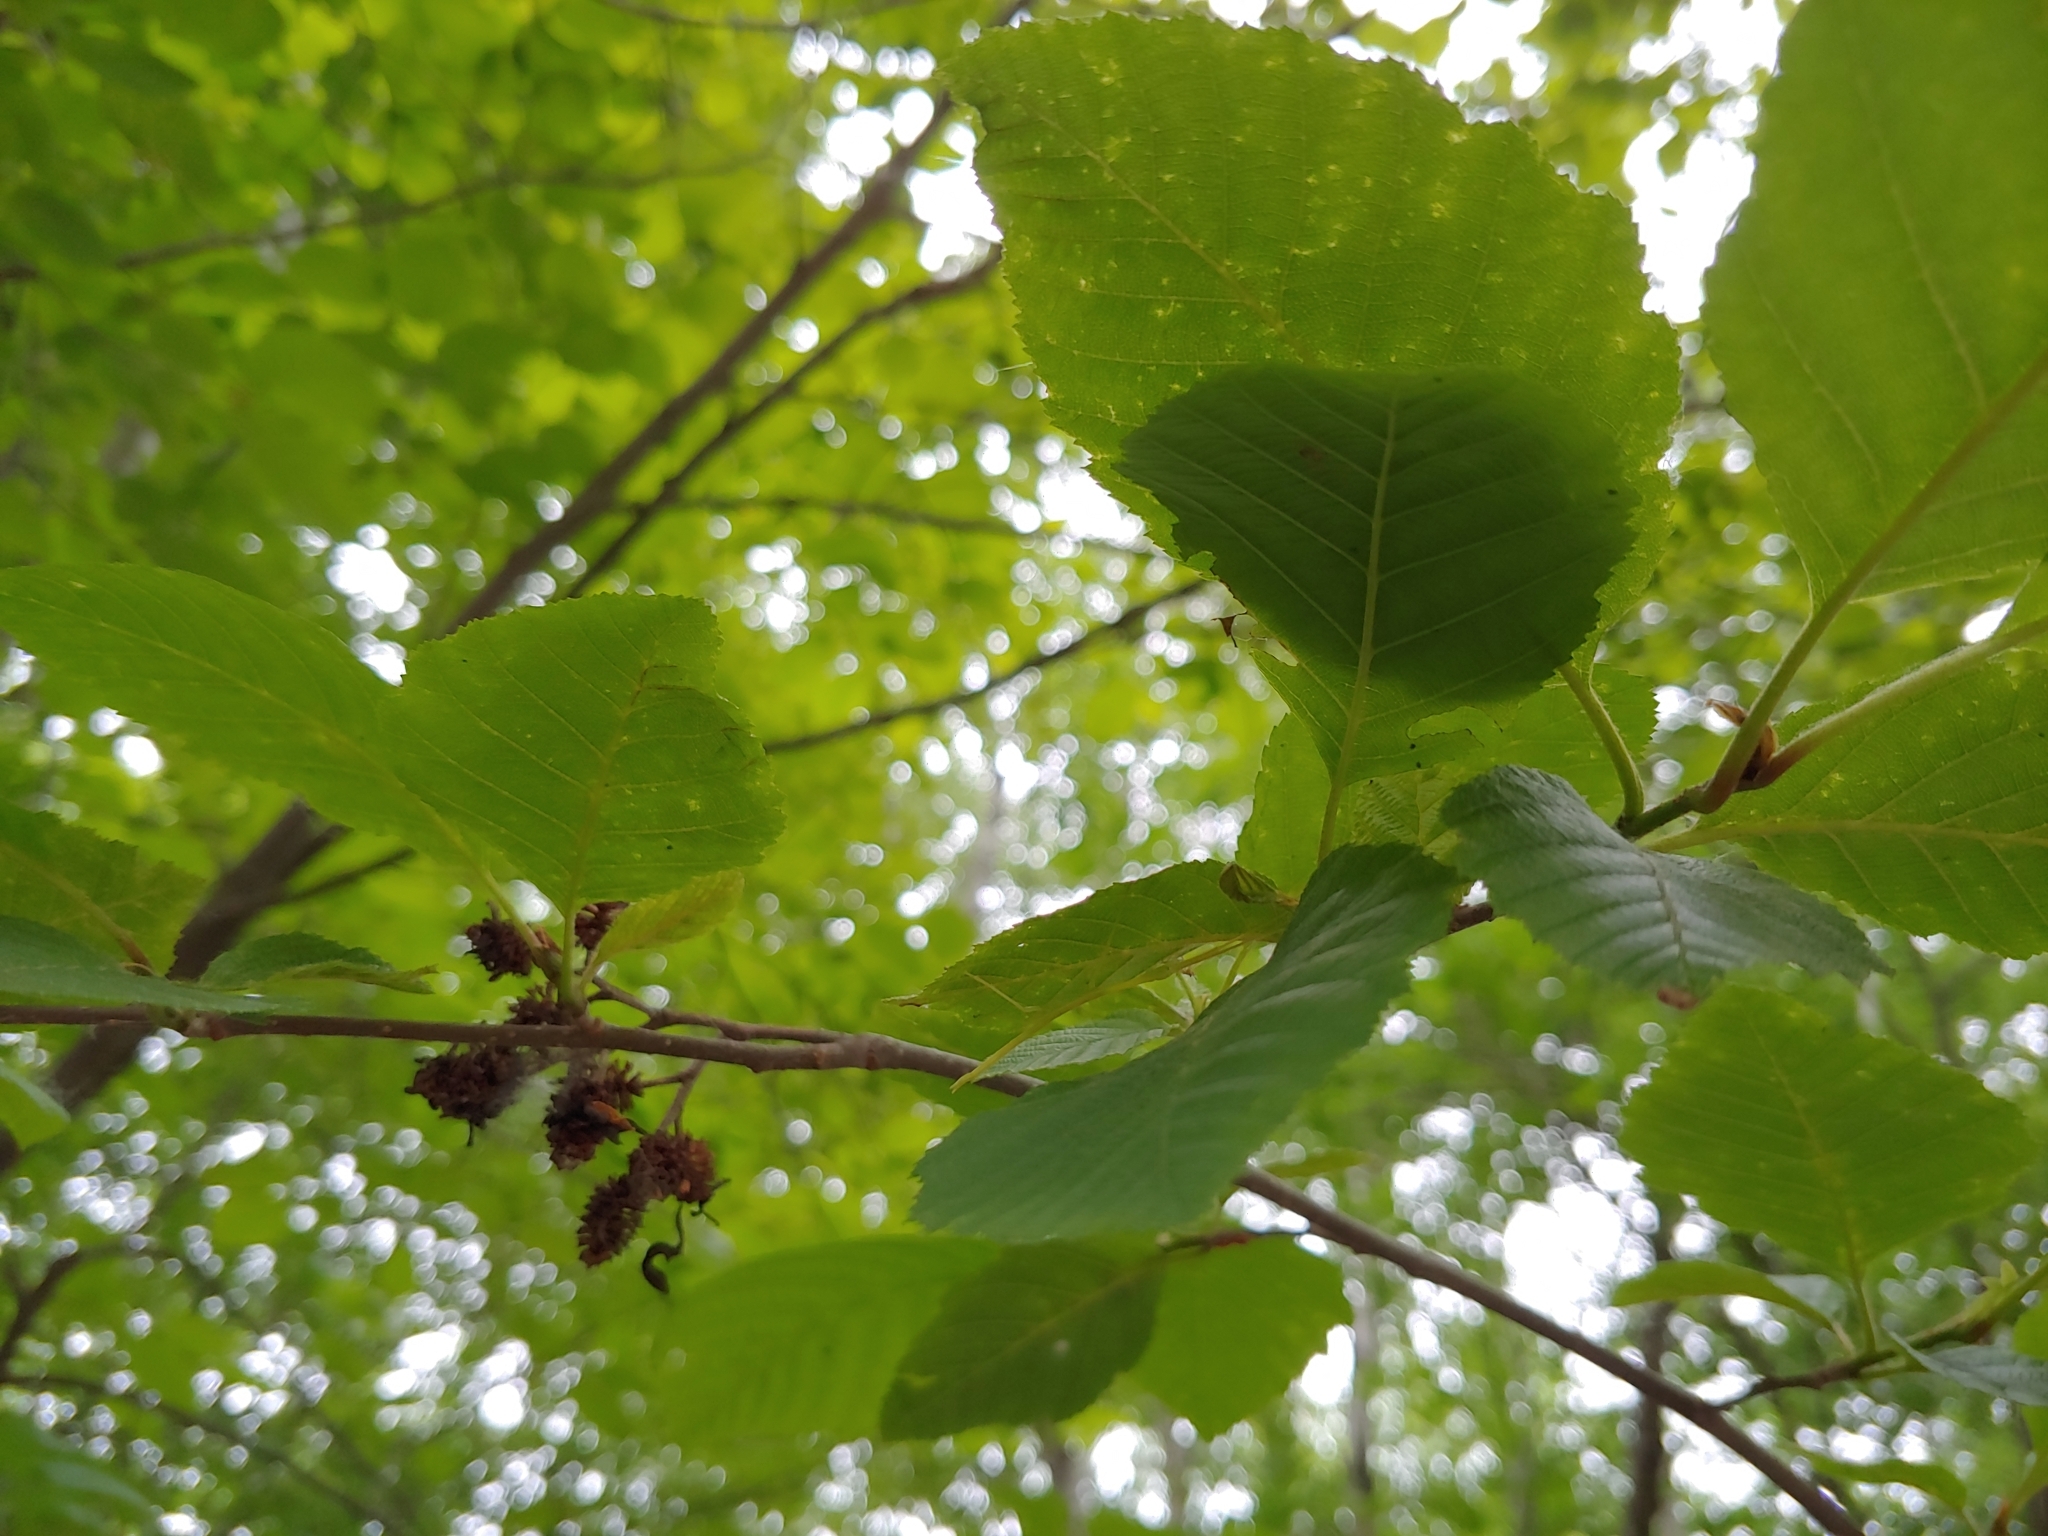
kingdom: Animalia
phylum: Arthropoda
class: Insecta
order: Phasmida
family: Diapheromeridae
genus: Diapheromera
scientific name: Diapheromera femorata
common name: Common american walkingstick
